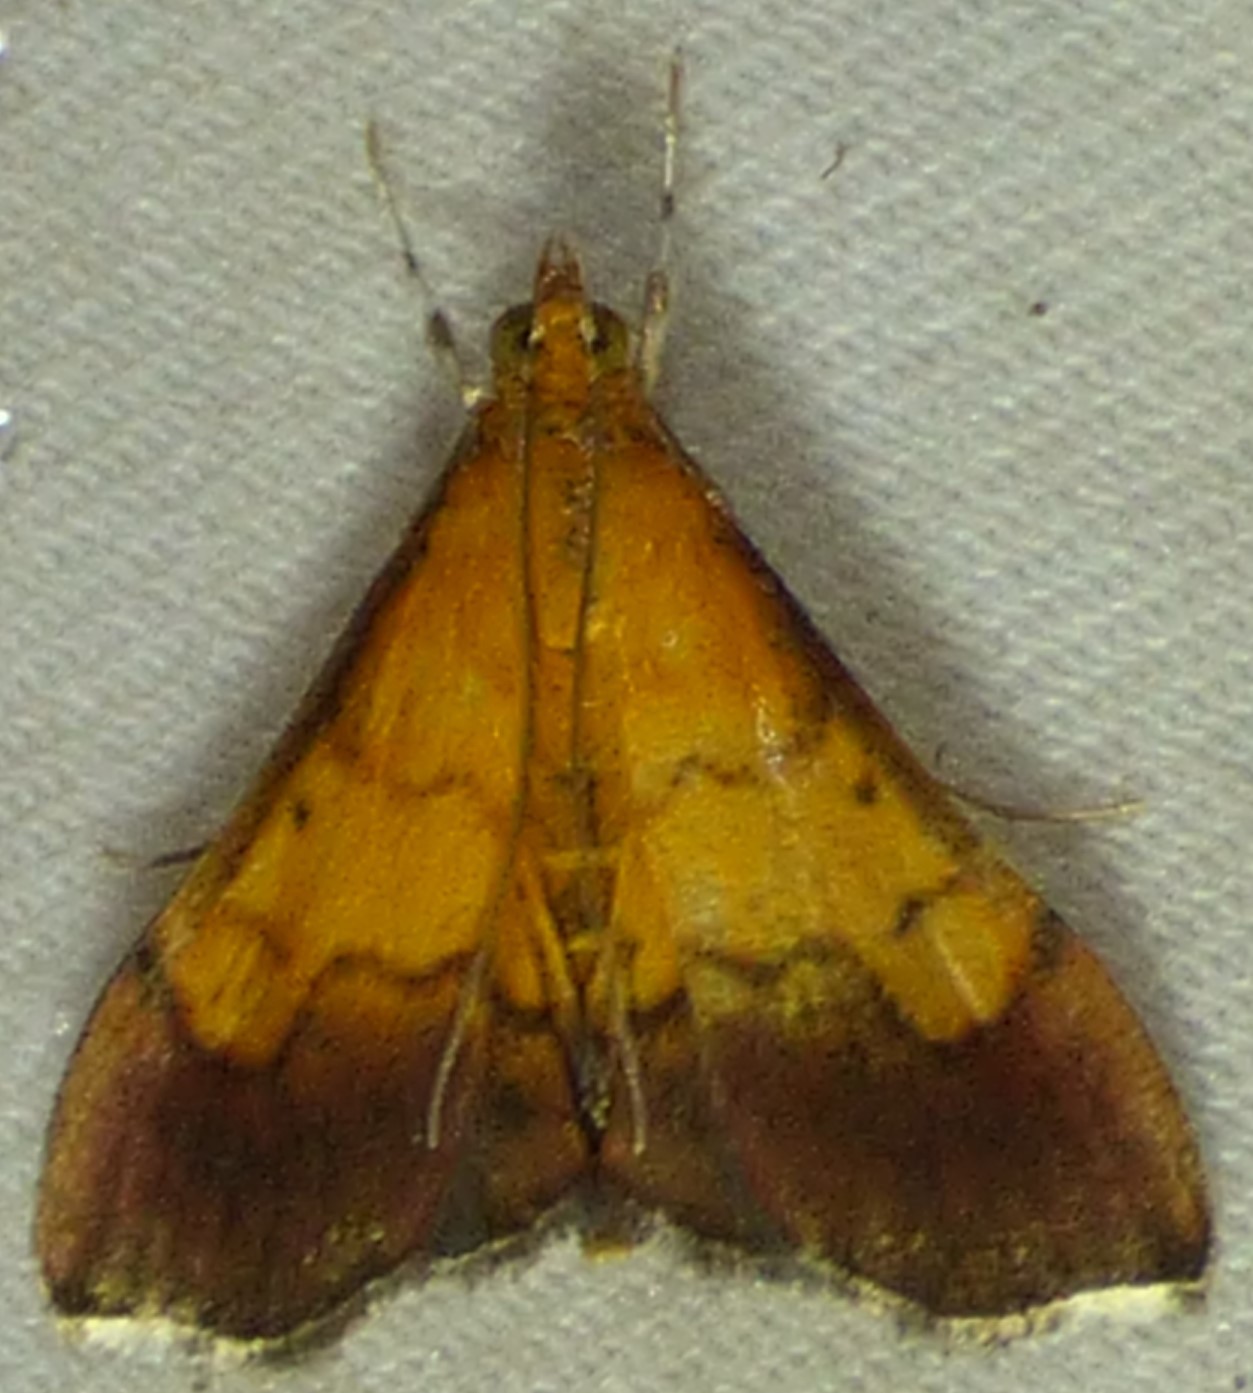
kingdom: Animalia
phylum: Arthropoda
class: Insecta
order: Lepidoptera
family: Crambidae
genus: Pyrausta
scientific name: Pyrausta bicoloralis
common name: Bicolored pyrausta moth
